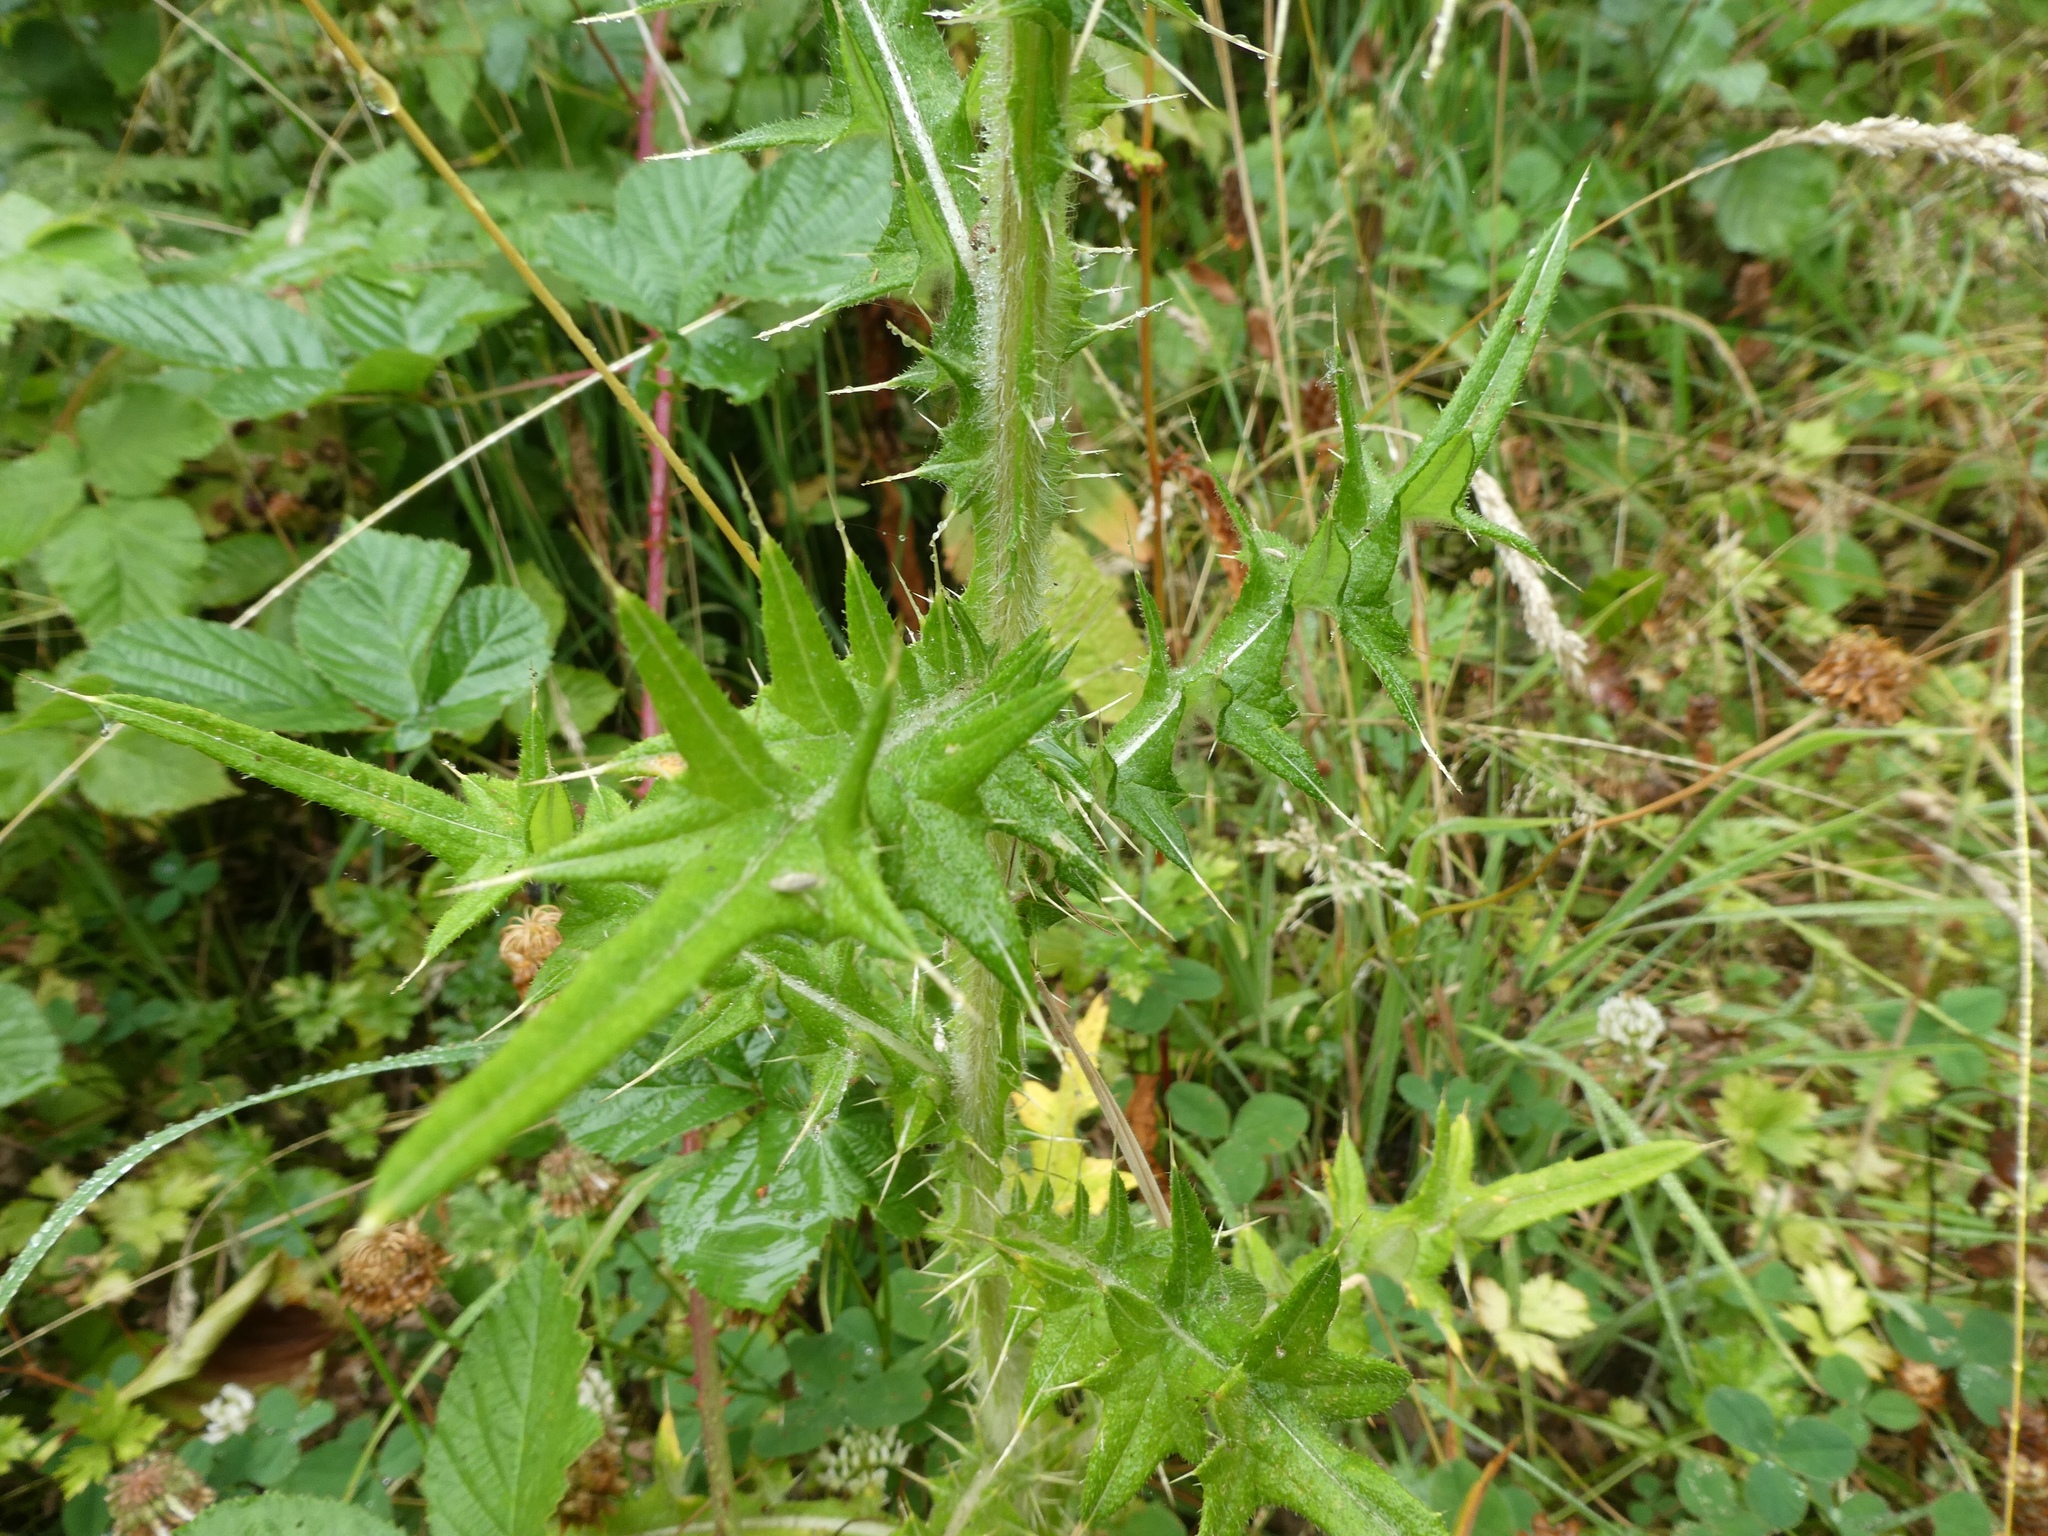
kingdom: Plantae
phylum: Tracheophyta
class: Magnoliopsida
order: Asterales
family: Asteraceae
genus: Cirsium
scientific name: Cirsium vulgare
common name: Bull thistle
